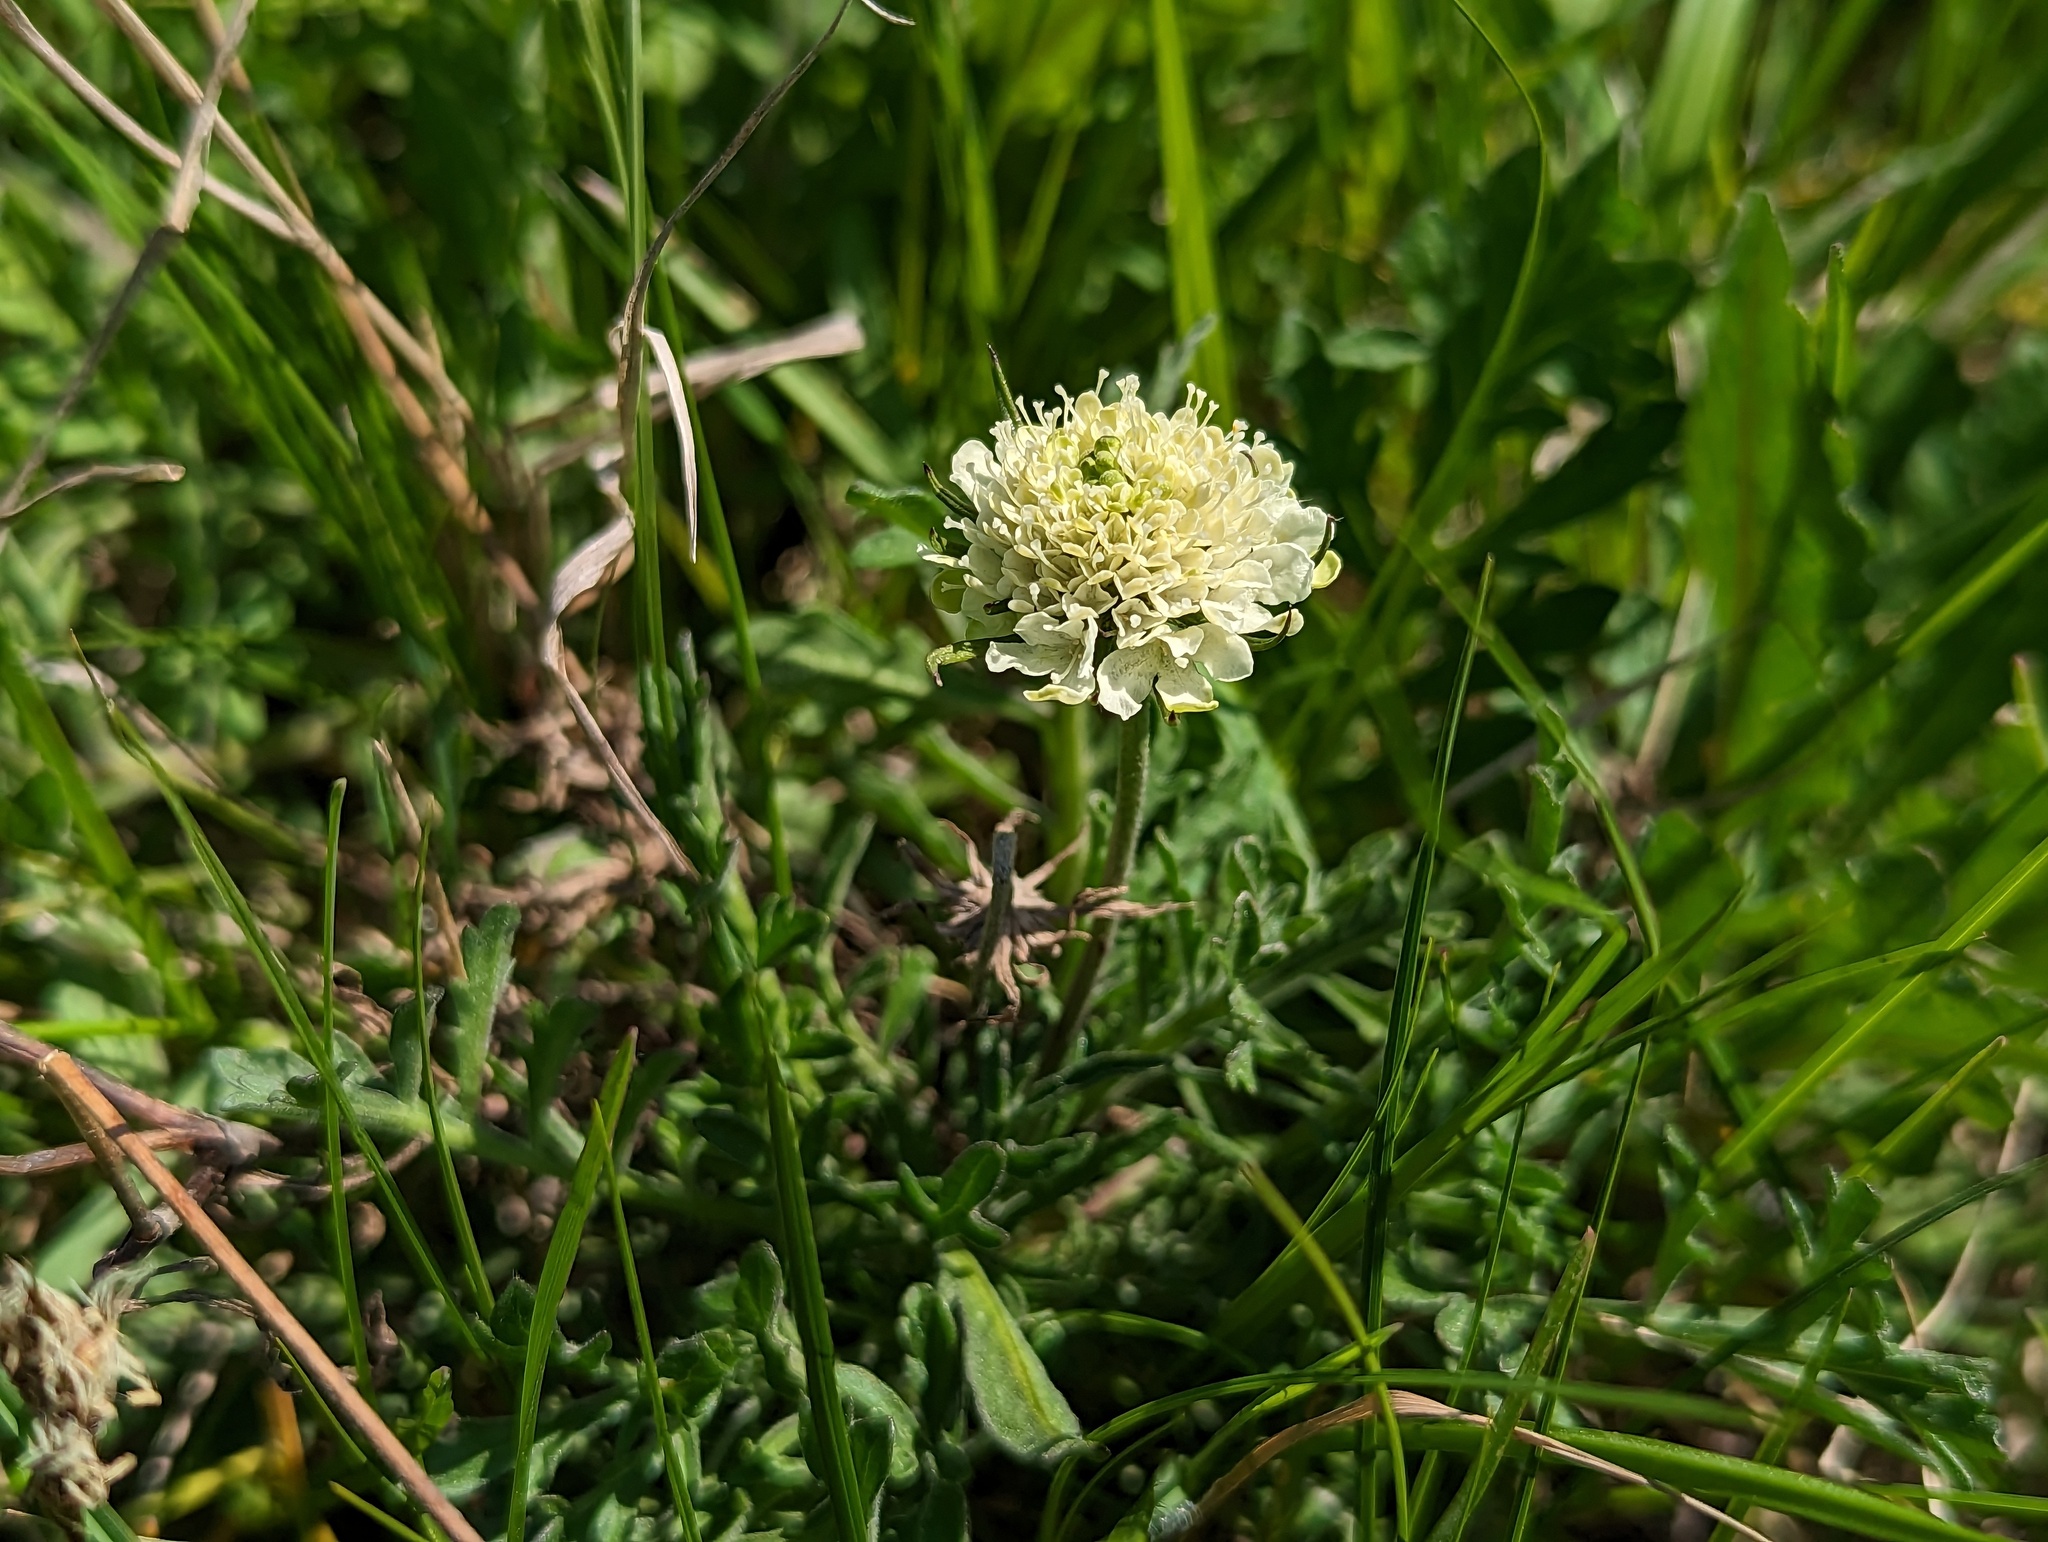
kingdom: Plantae
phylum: Tracheophyta
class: Magnoliopsida
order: Dipsacales
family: Caprifoliaceae
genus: Scabiosa
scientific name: Scabiosa ochroleuca
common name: Cream pincushions
